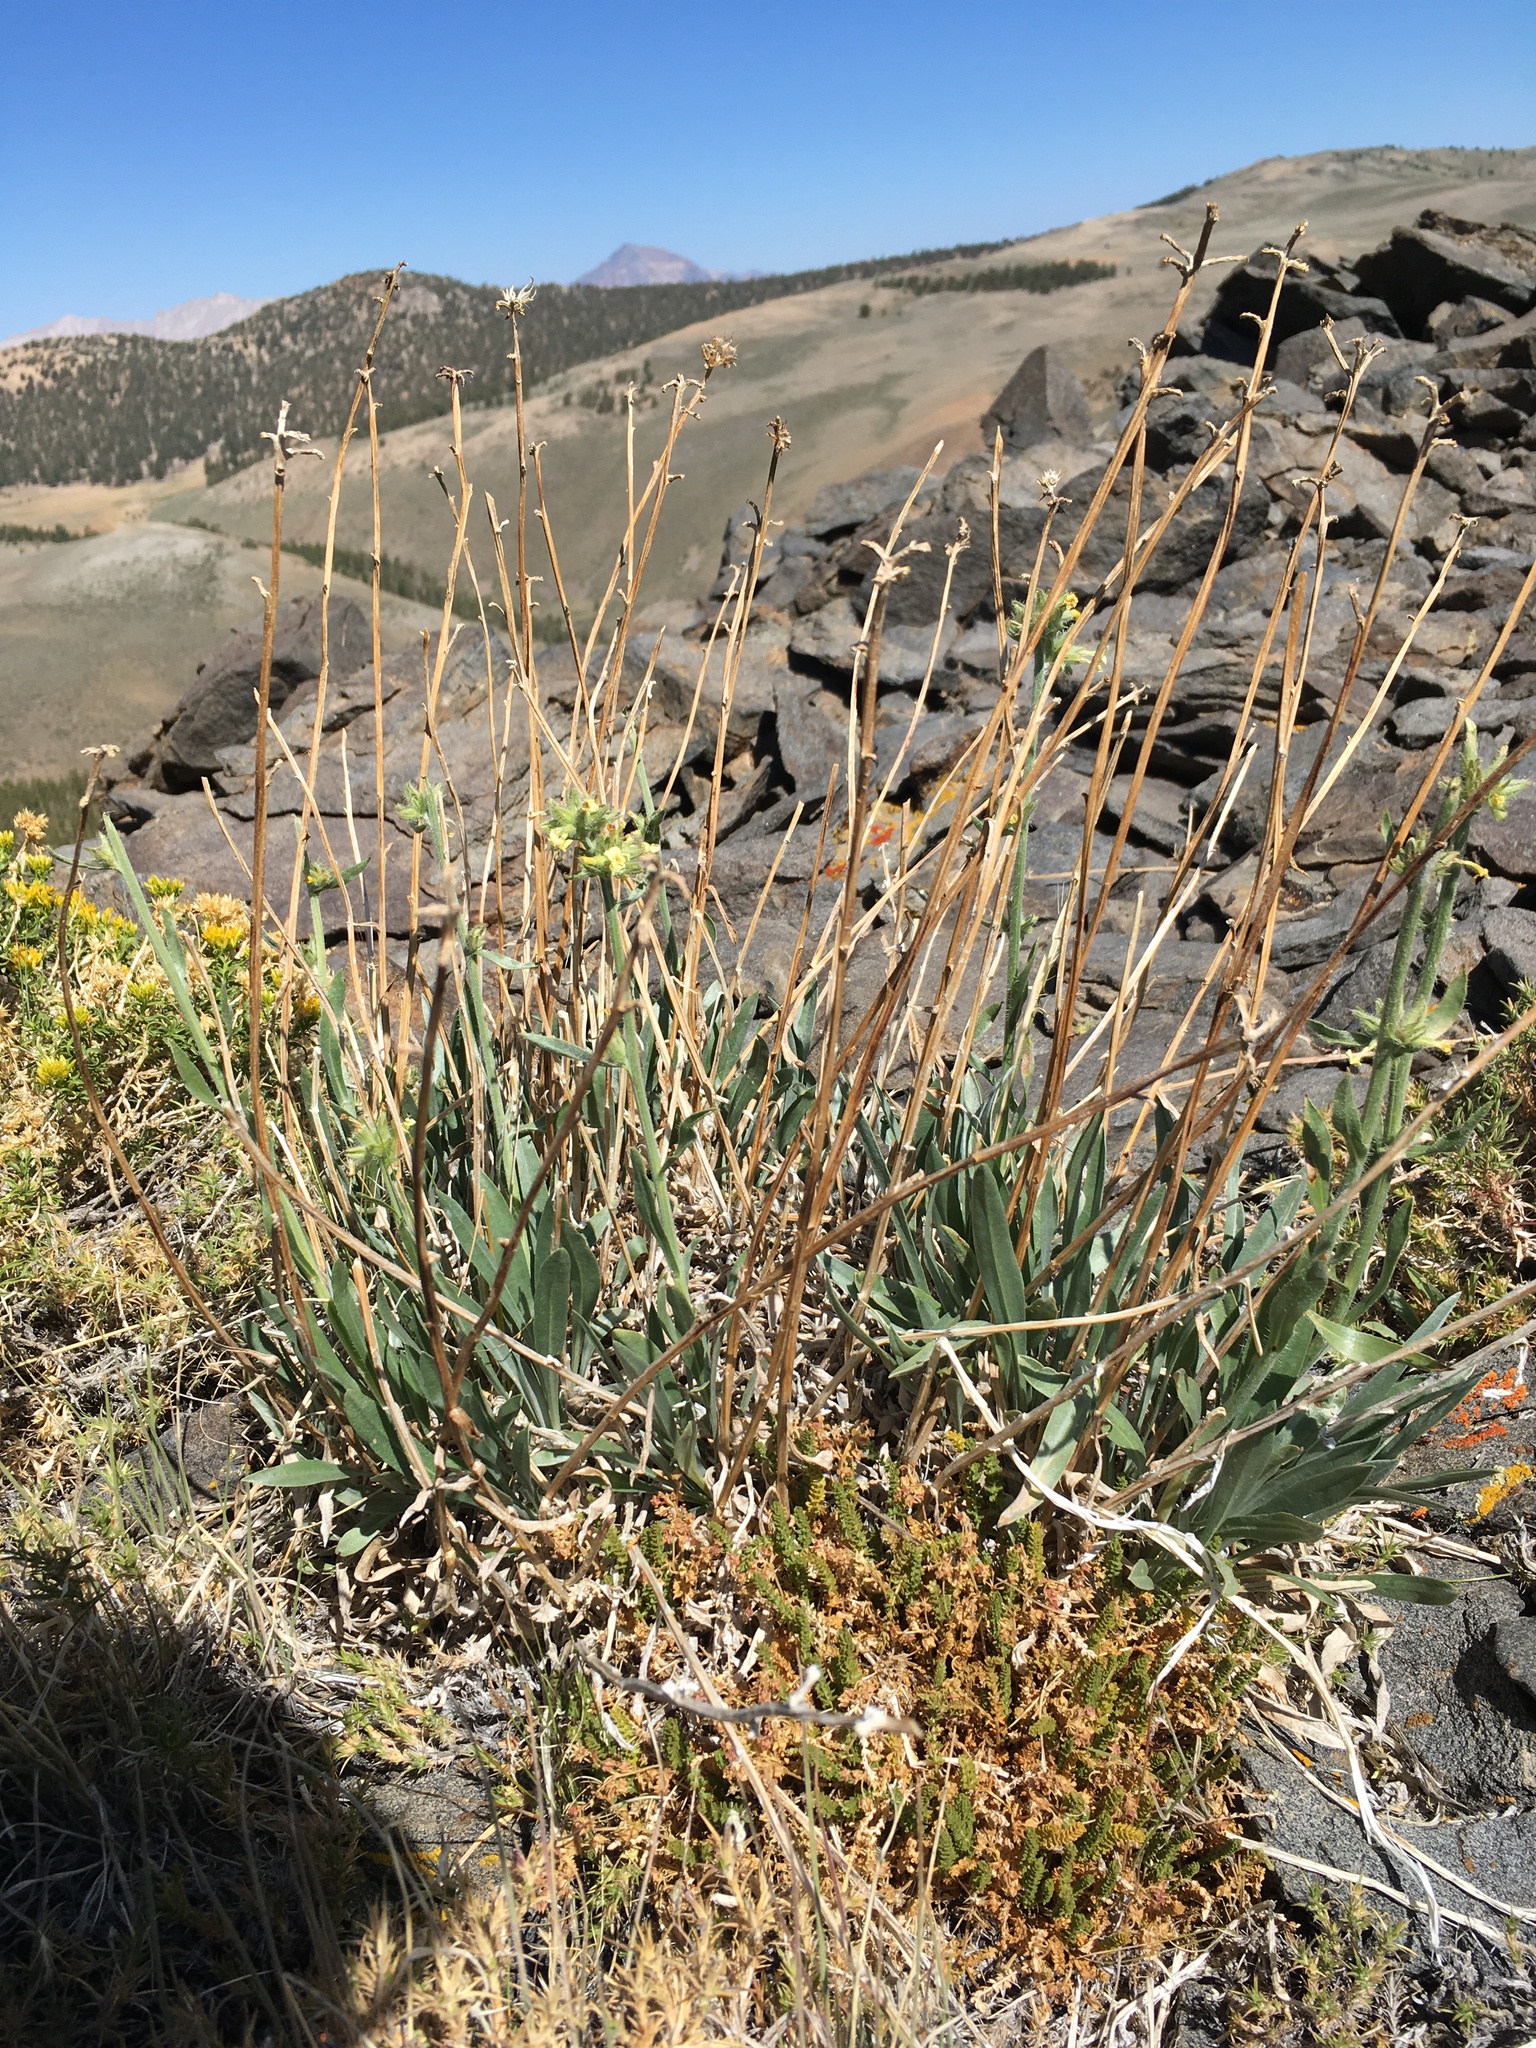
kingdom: Plantae
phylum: Tracheophyta
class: Magnoliopsida
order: Boraginales
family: Boraginaceae
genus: Oreocarya
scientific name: Oreocarya confertiflora
